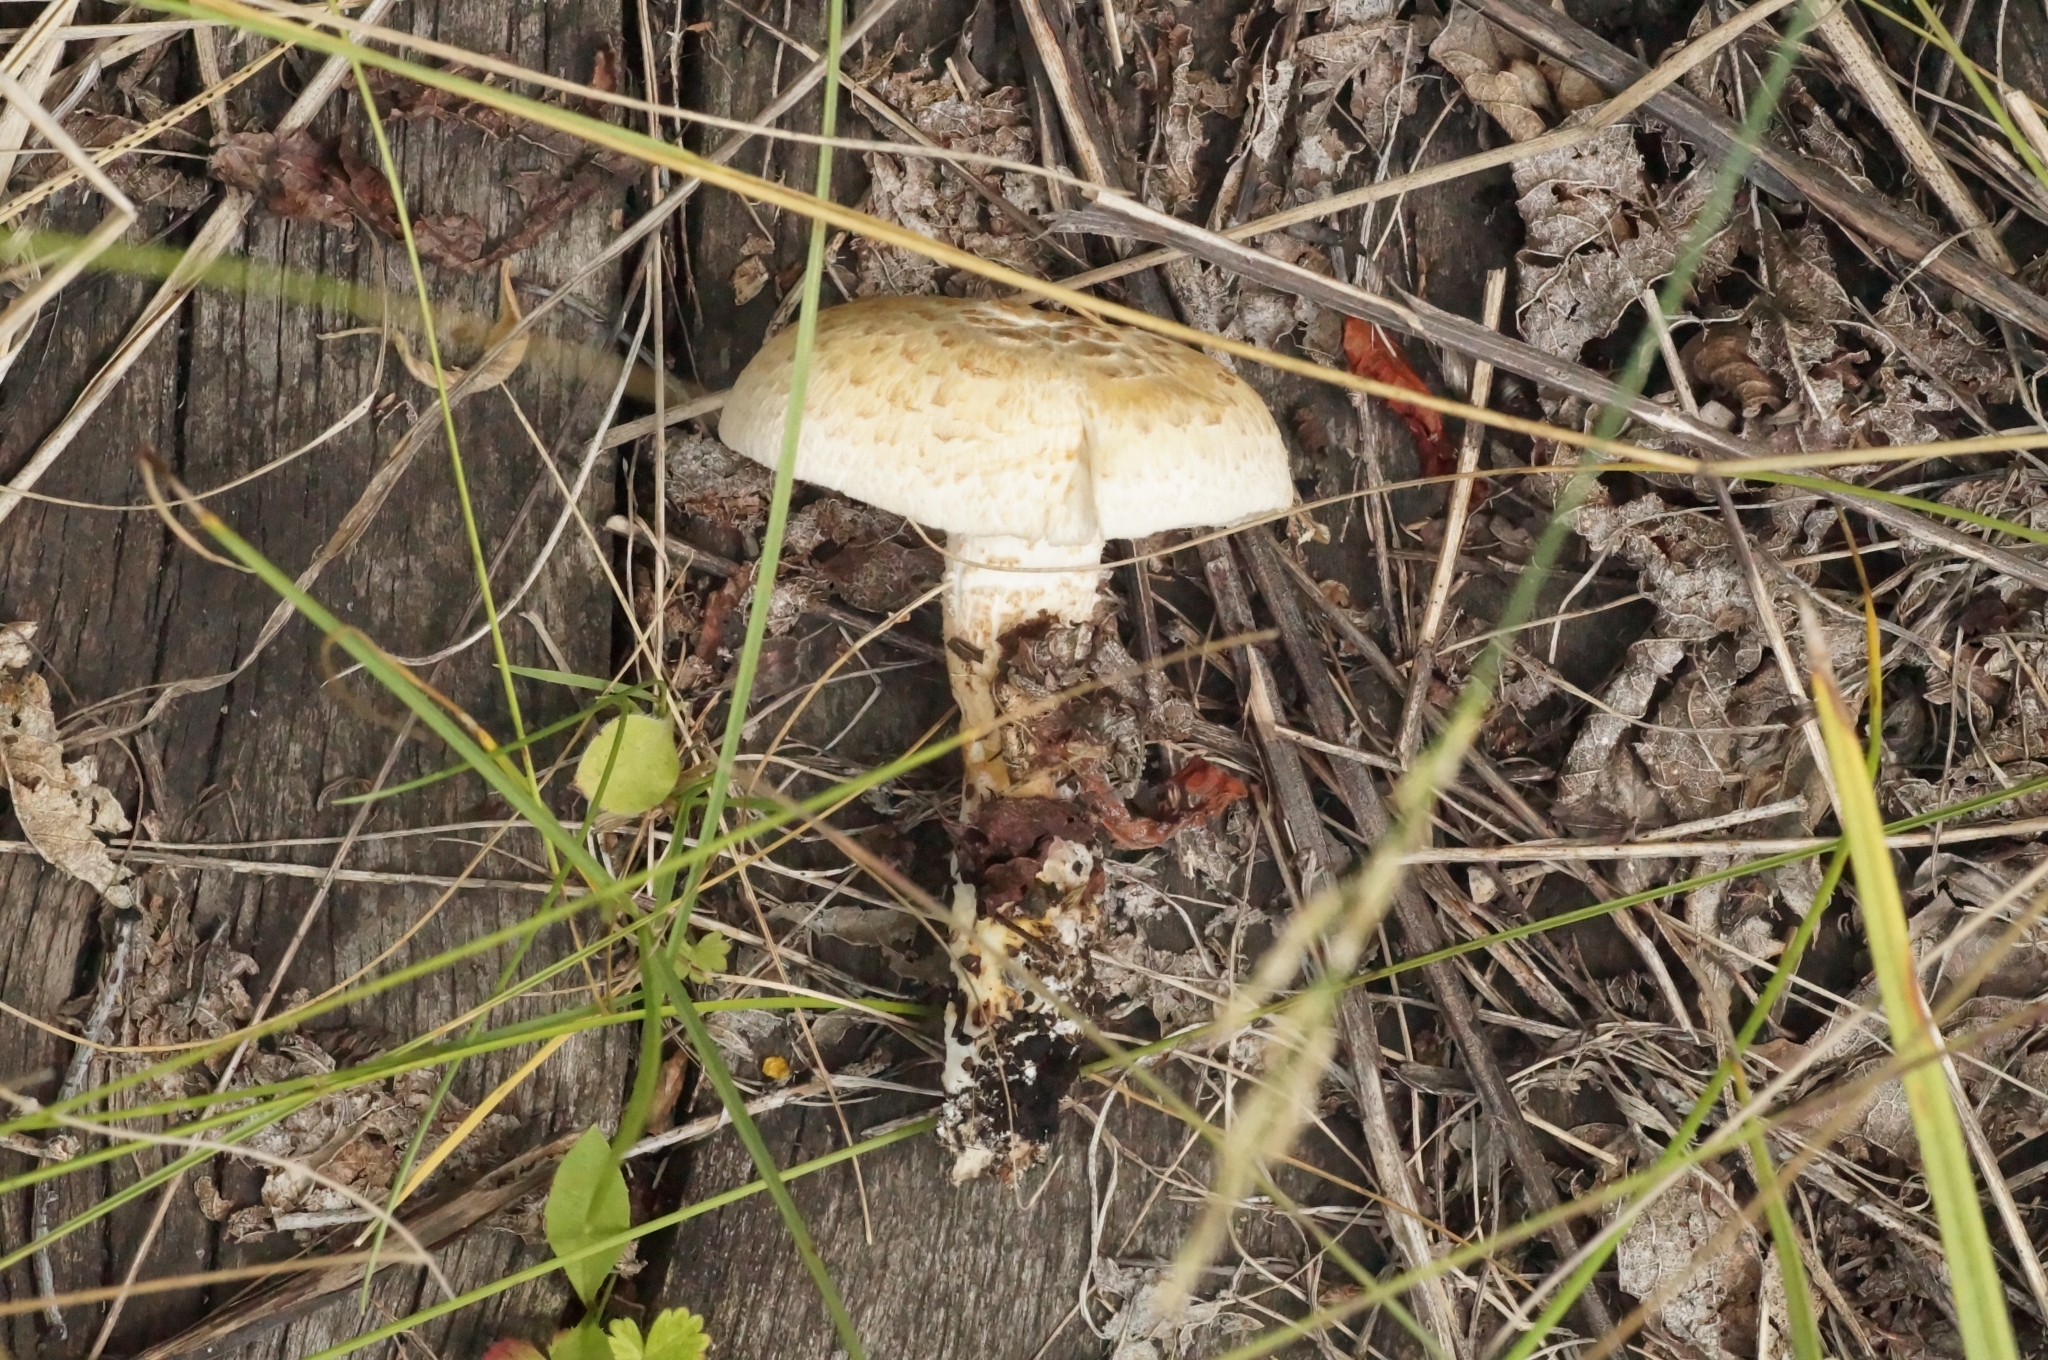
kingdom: Fungi
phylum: Basidiomycota
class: Agaricomycetes
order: Gloeophyllales
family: Gloeophyllaceae
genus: Neolentinus
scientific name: Neolentinus lepideus
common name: Scaly sawgill
